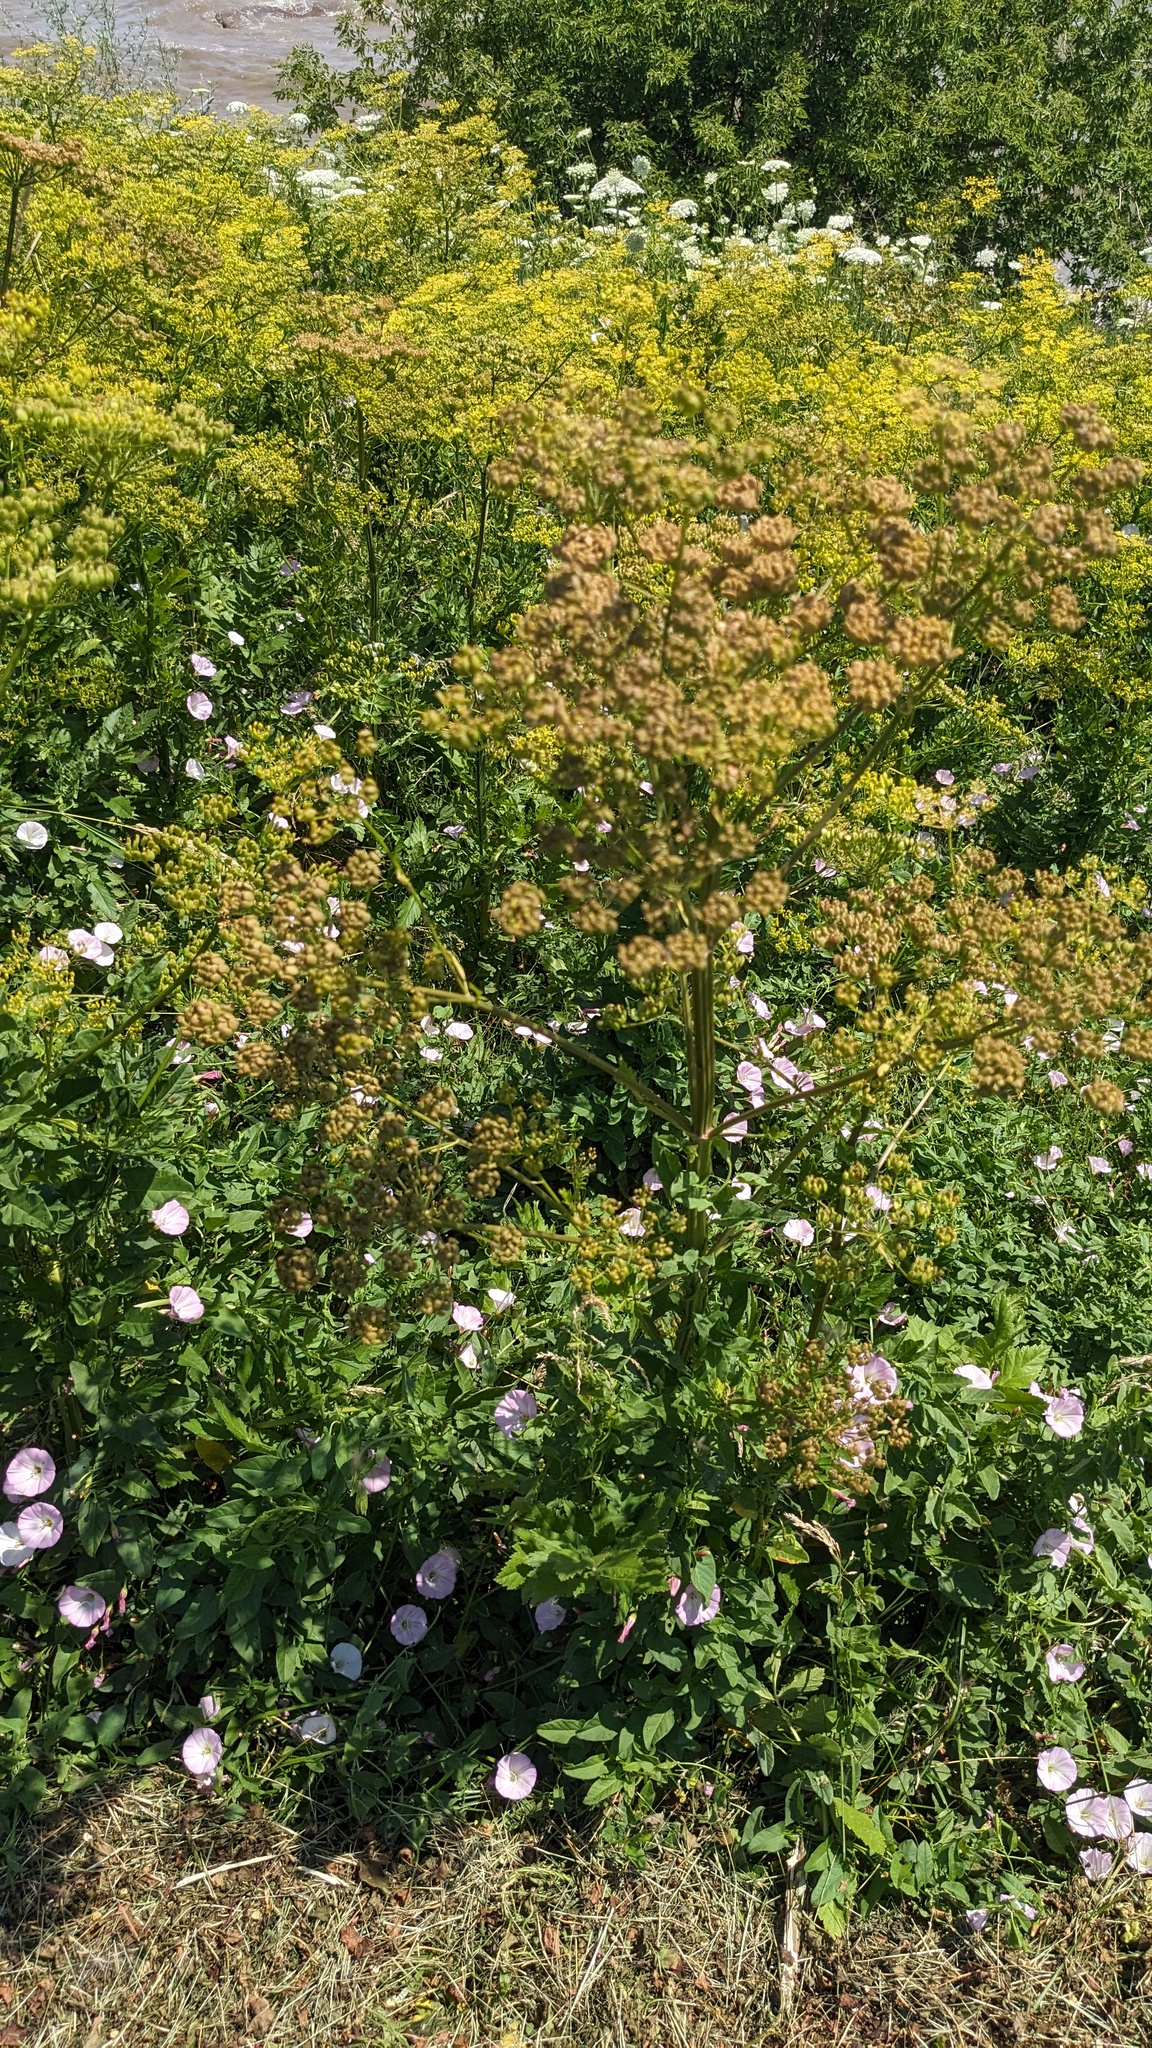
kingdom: Plantae
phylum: Tracheophyta
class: Magnoliopsida
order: Apiales
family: Apiaceae
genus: Pastinaca
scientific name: Pastinaca sativa
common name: Wild parsnip
